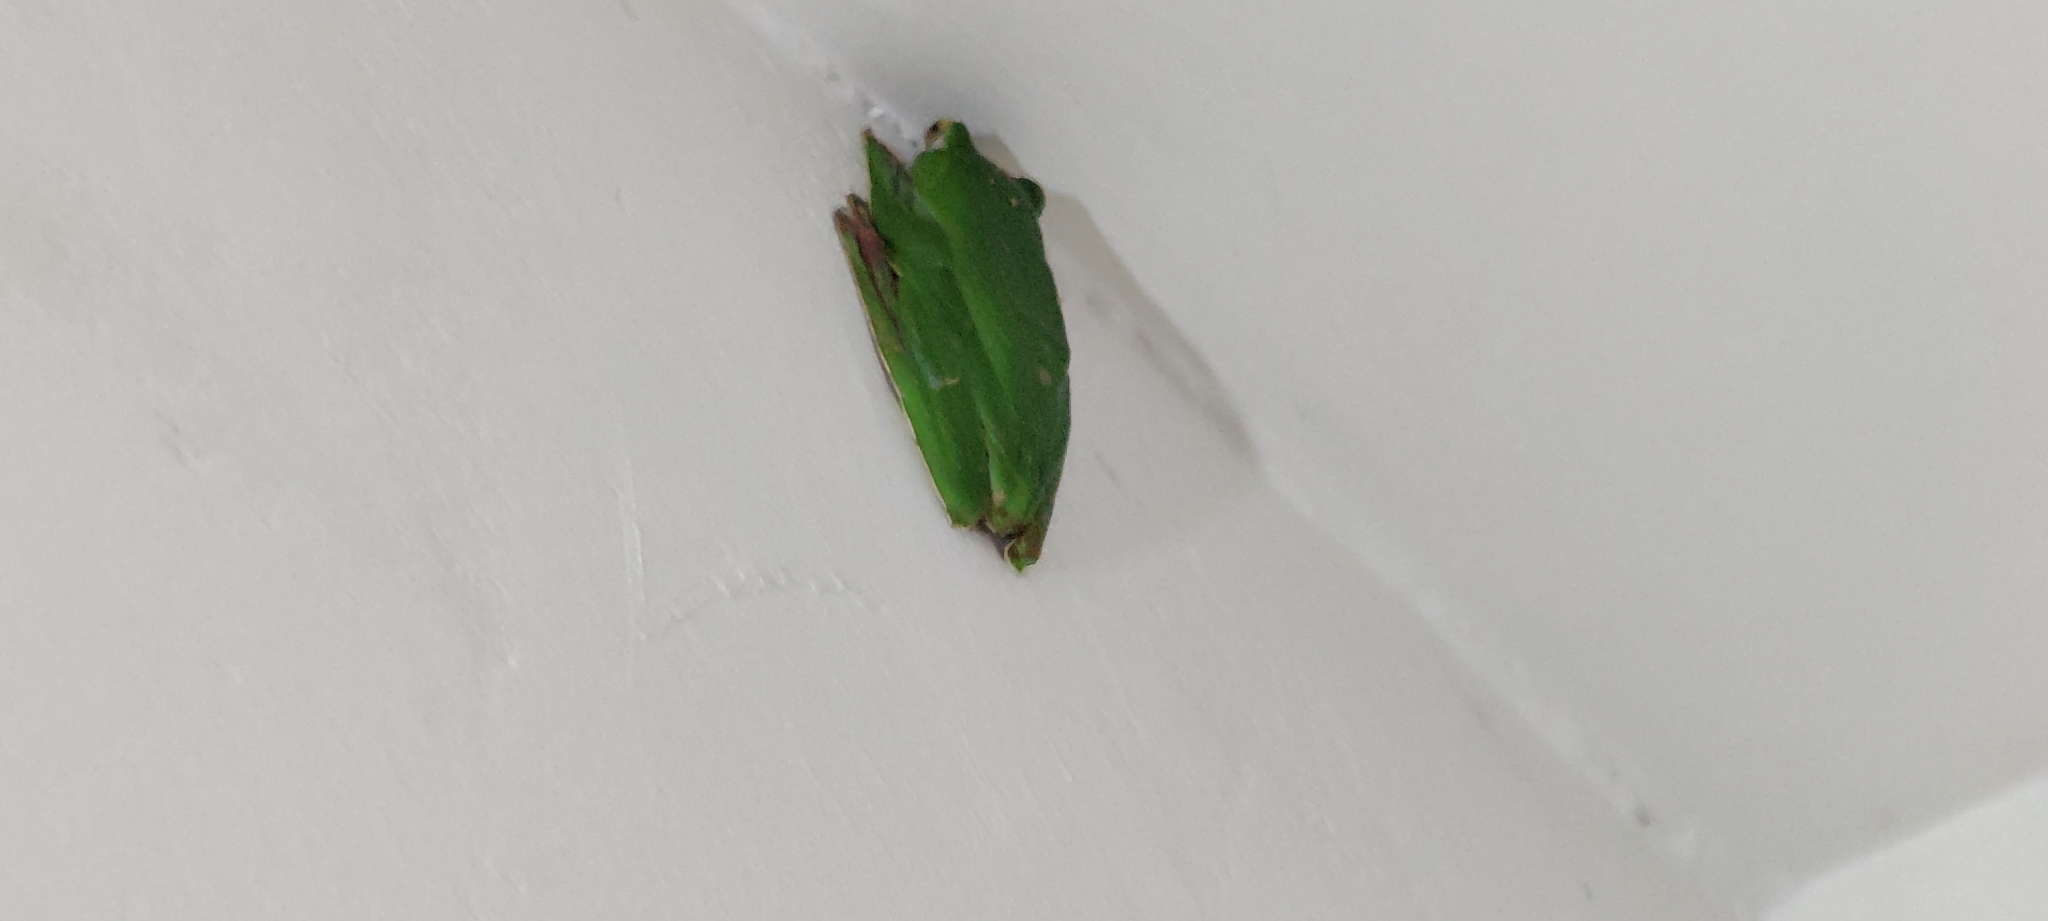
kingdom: Animalia
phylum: Chordata
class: Amphibia
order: Anura
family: Rhacophoridae
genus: Rhacophorus
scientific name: Rhacophorus malabaricus
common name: Malabar gliding frog
